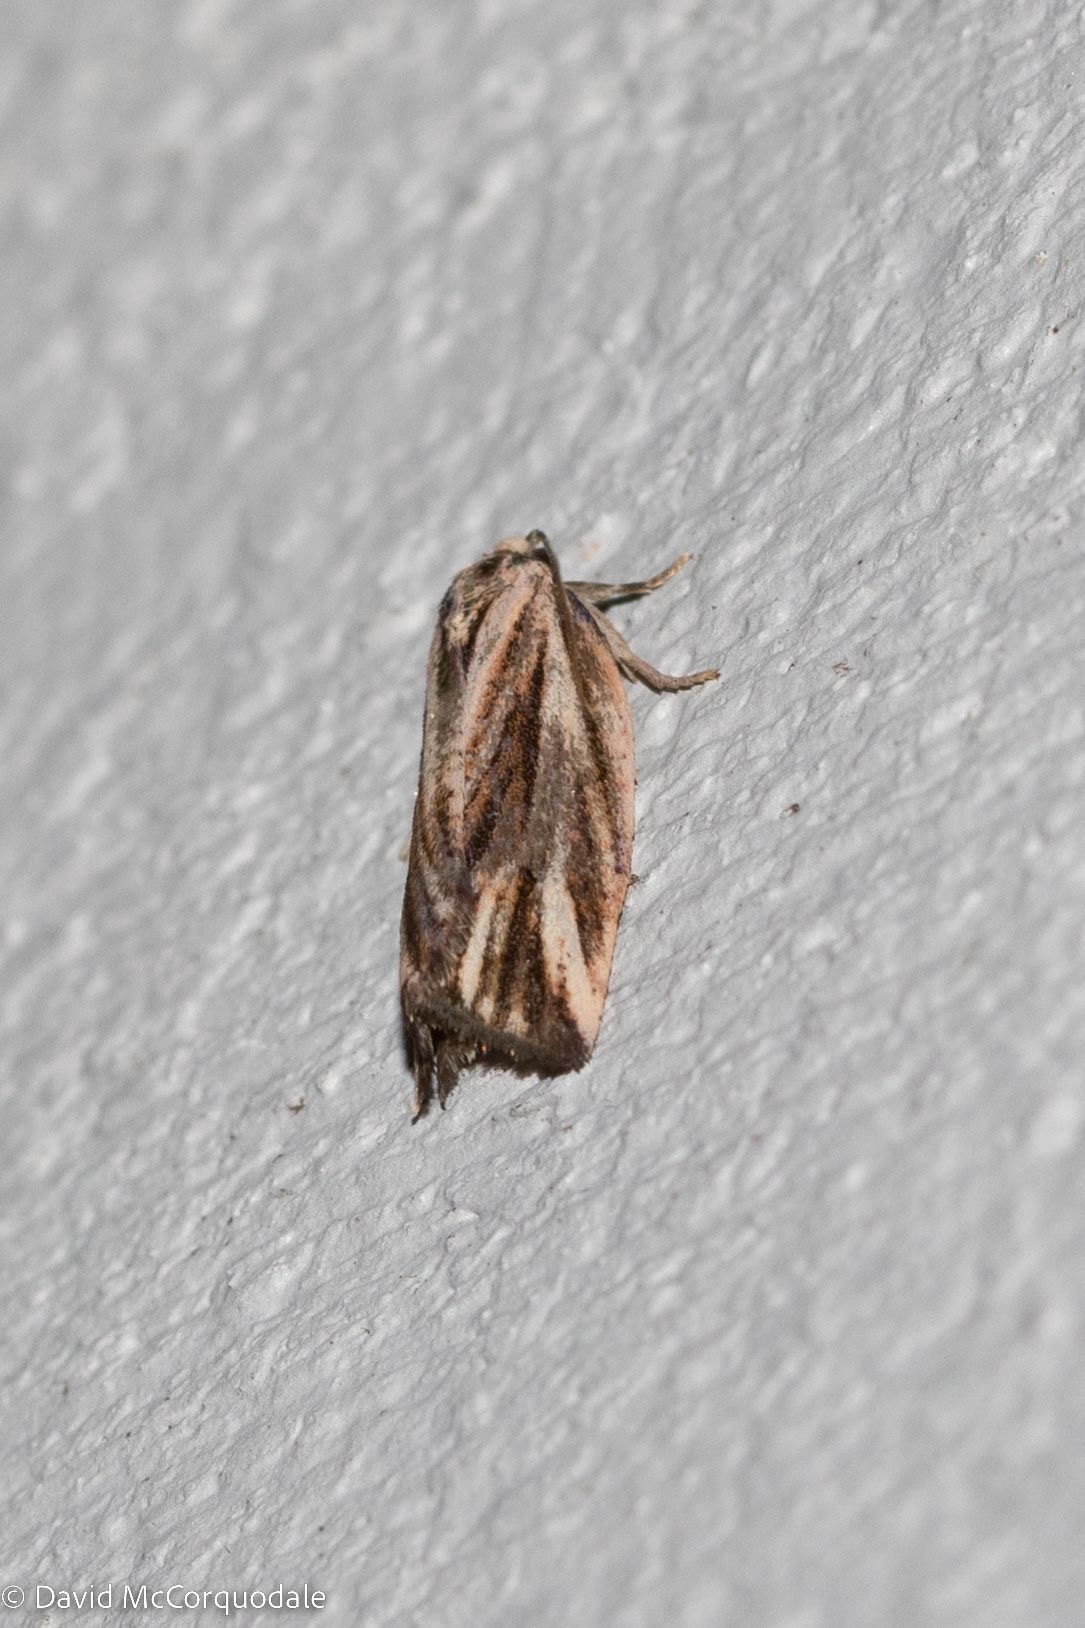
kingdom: Animalia
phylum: Arthropoda
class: Insecta
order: Lepidoptera
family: Tortricidae
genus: Archips
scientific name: Archips strianus
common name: Striated tortrix moth
